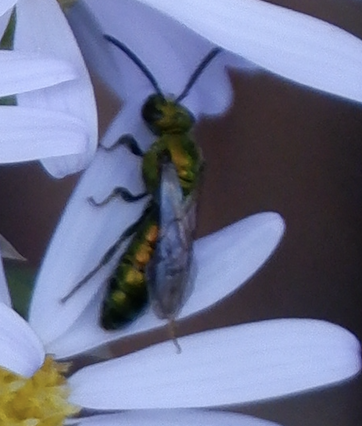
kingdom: Animalia
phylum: Arthropoda
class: Insecta
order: Hymenoptera
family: Halictidae
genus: Augochlora
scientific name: Augochlora pura
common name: Pure green sweat bee
